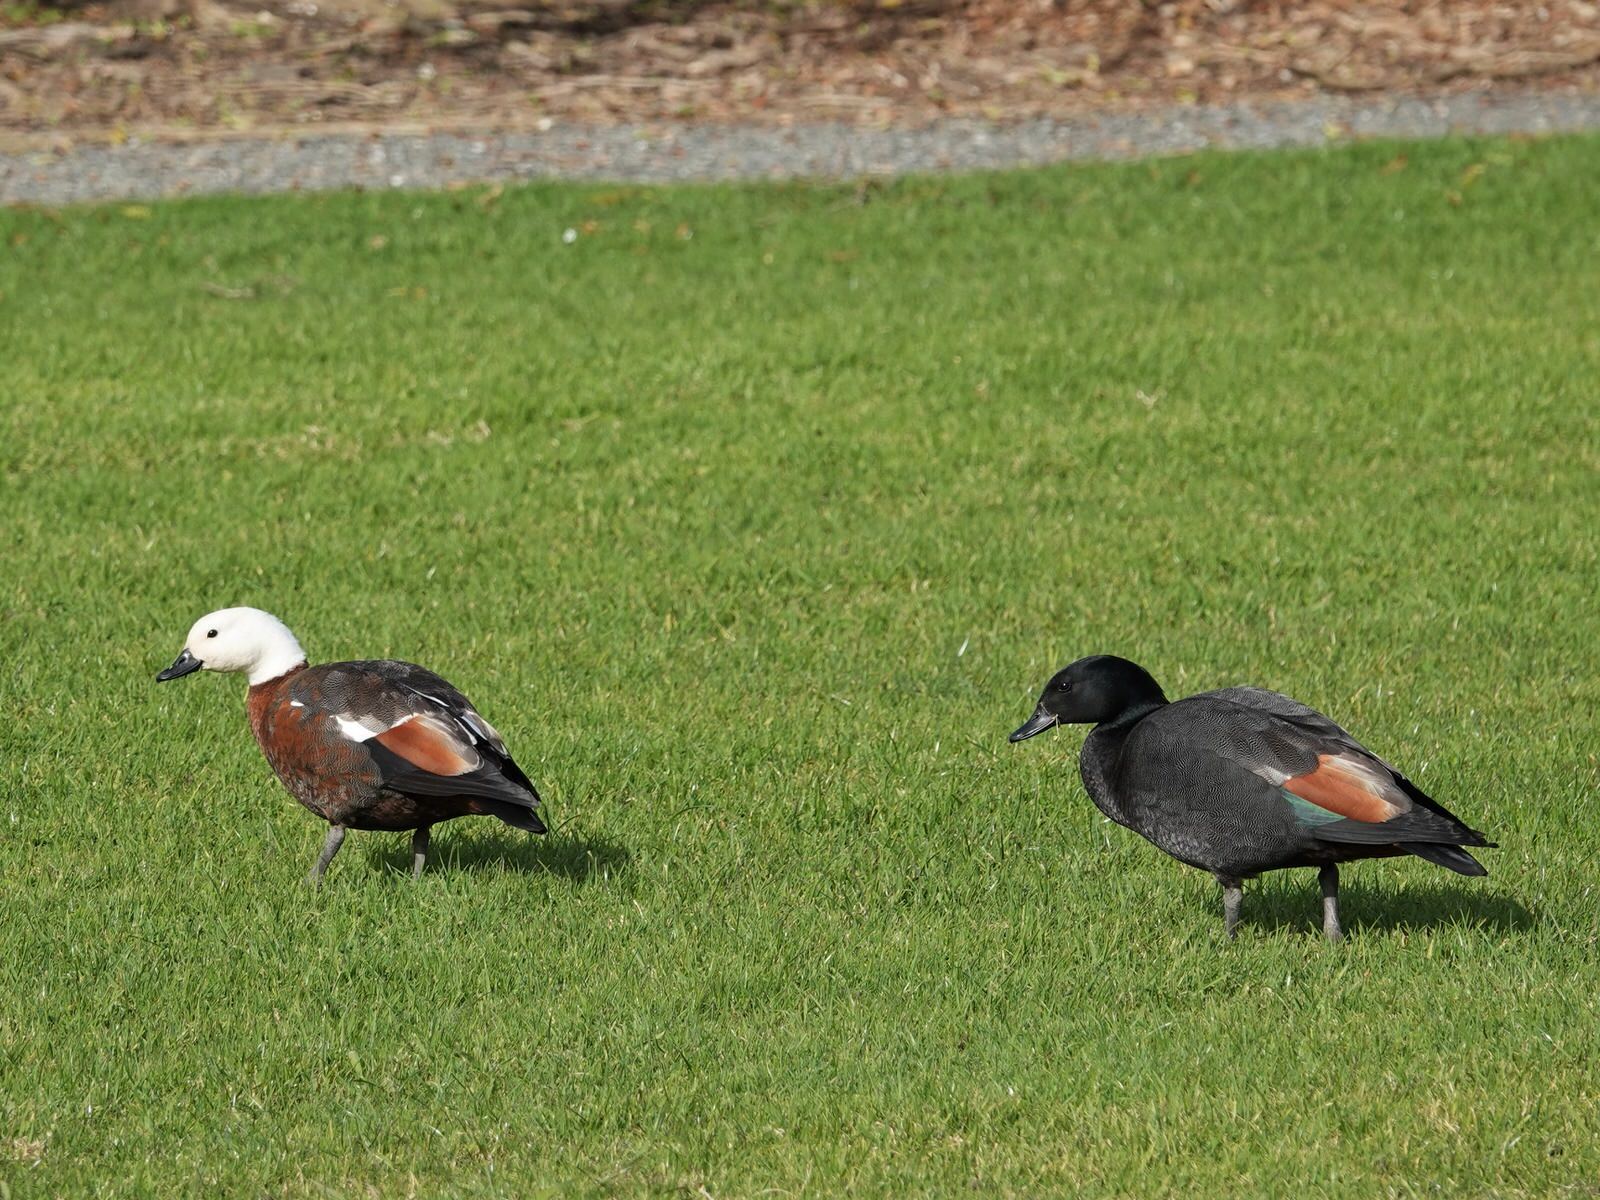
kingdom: Animalia
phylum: Chordata
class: Aves
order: Anseriformes
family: Anatidae
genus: Tadorna
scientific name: Tadorna variegata
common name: Paradise shelduck
